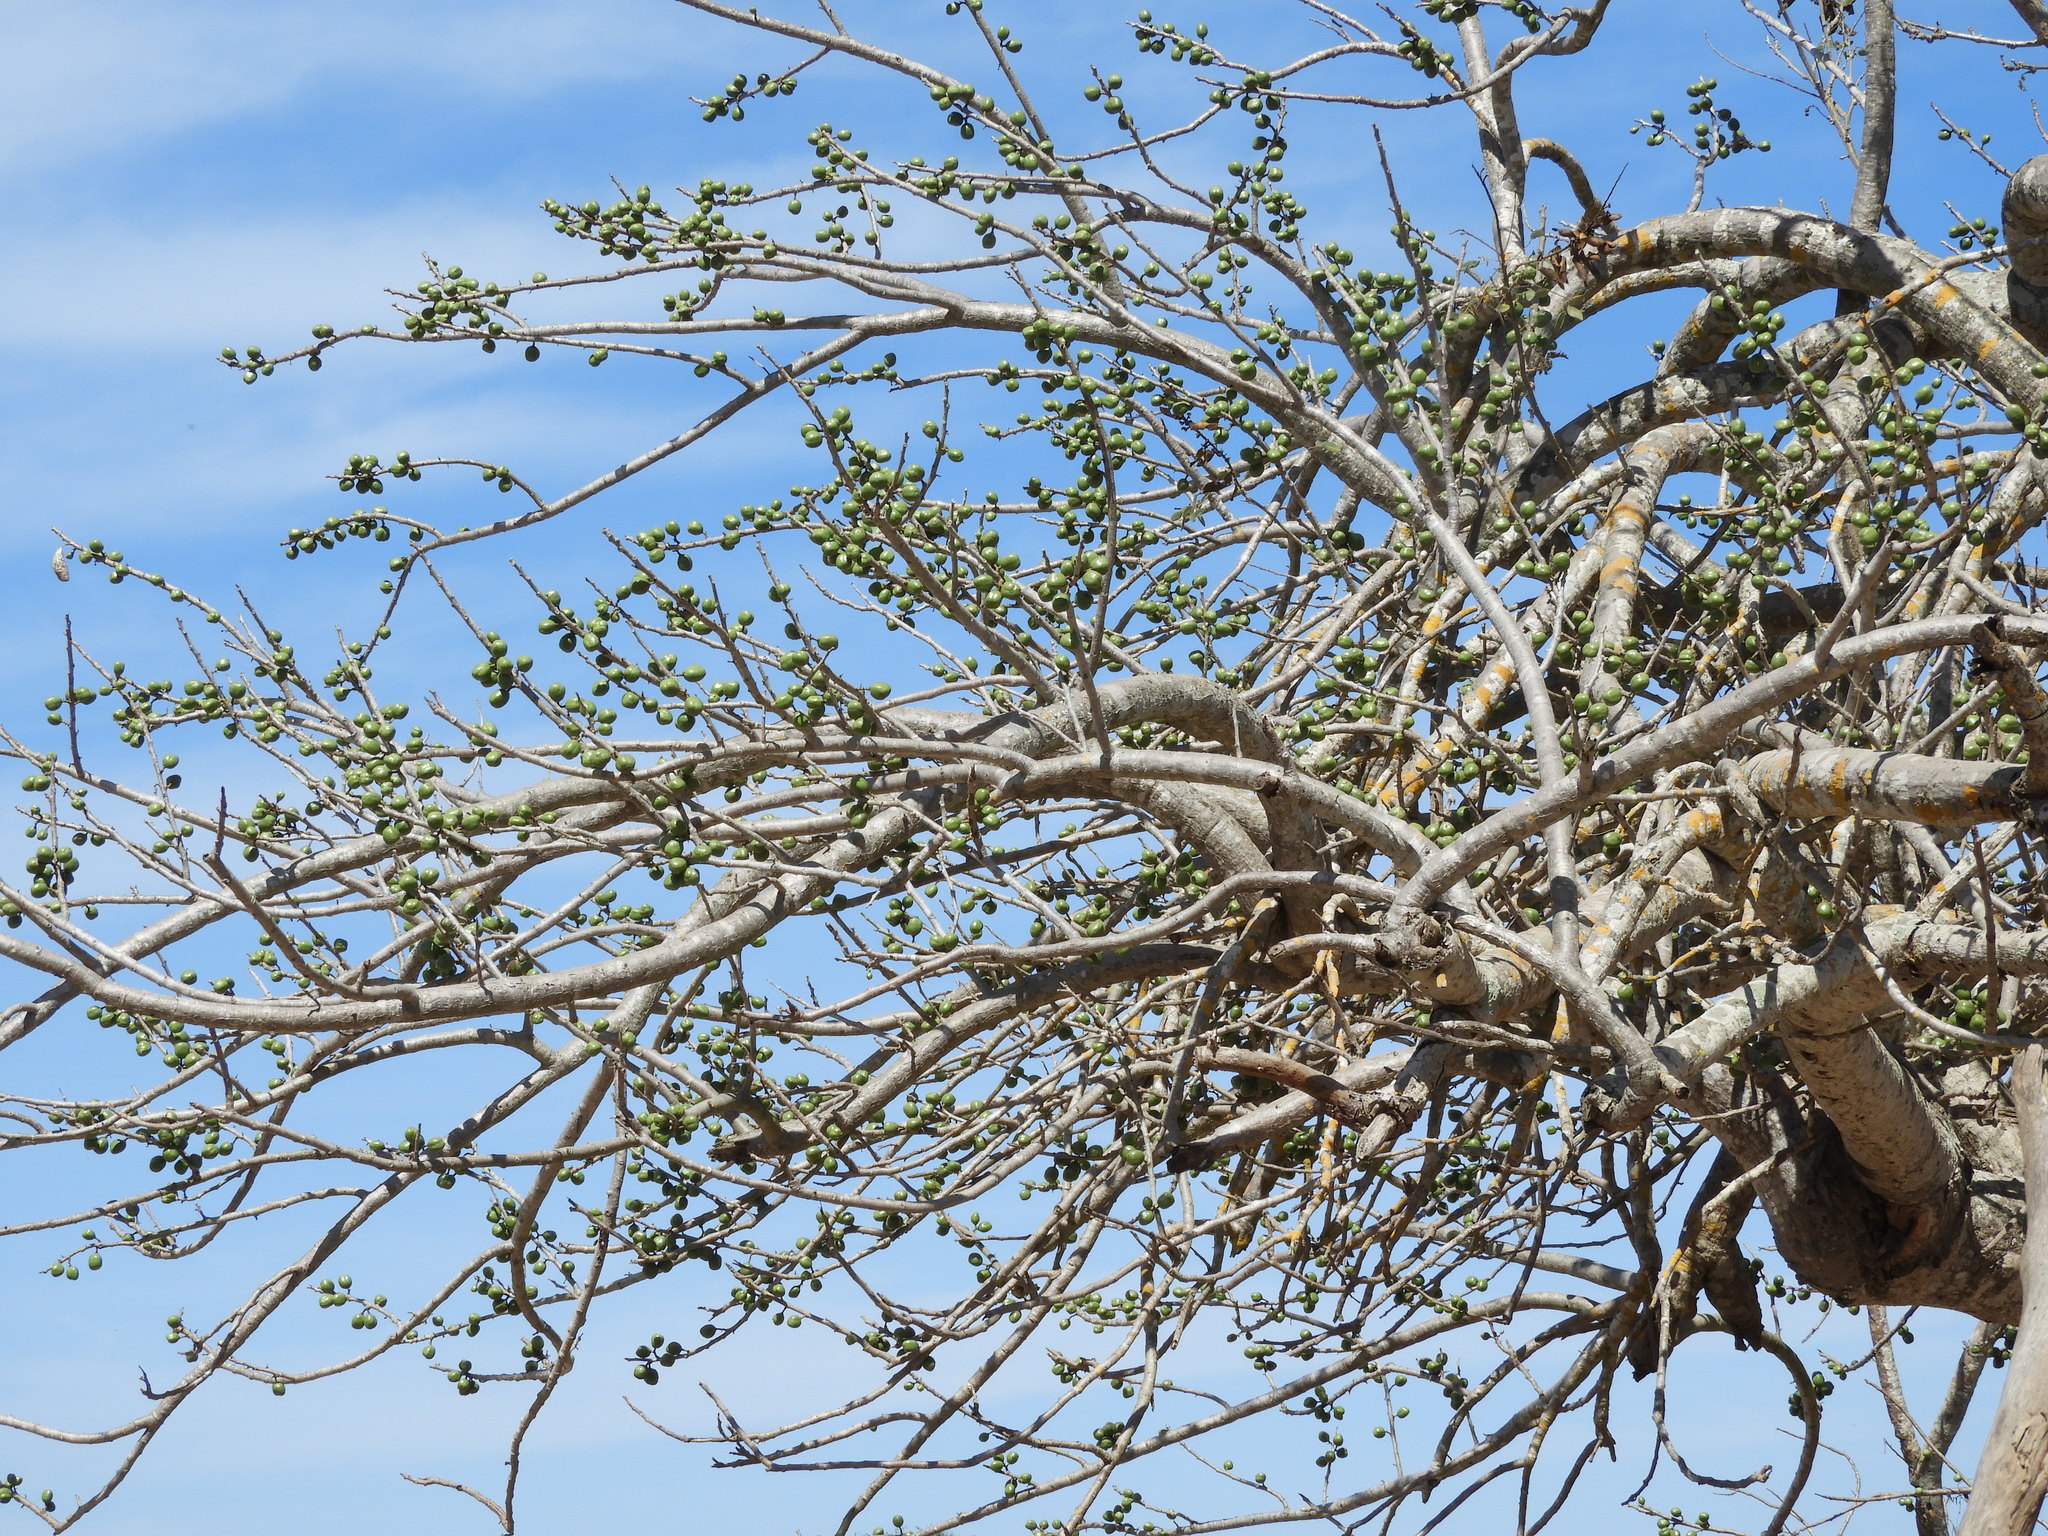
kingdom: Plantae
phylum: Tracheophyta
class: Magnoliopsida
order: Sapindales
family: Anacardiaceae
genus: Spondias
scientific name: Spondias purpurea
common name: Purple mombin
